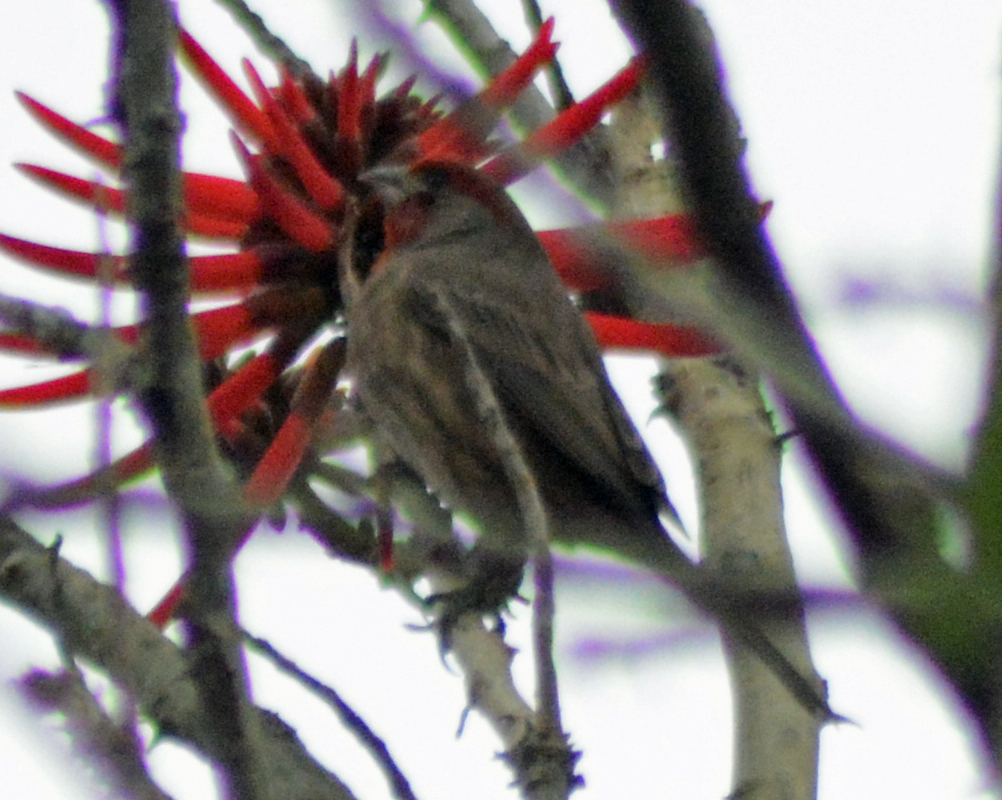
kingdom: Animalia
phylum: Chordata
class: Aves
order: Passeriformes
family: Fringillidae
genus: Haemorhous
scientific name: Haemorhous mexicanus
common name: House finch
